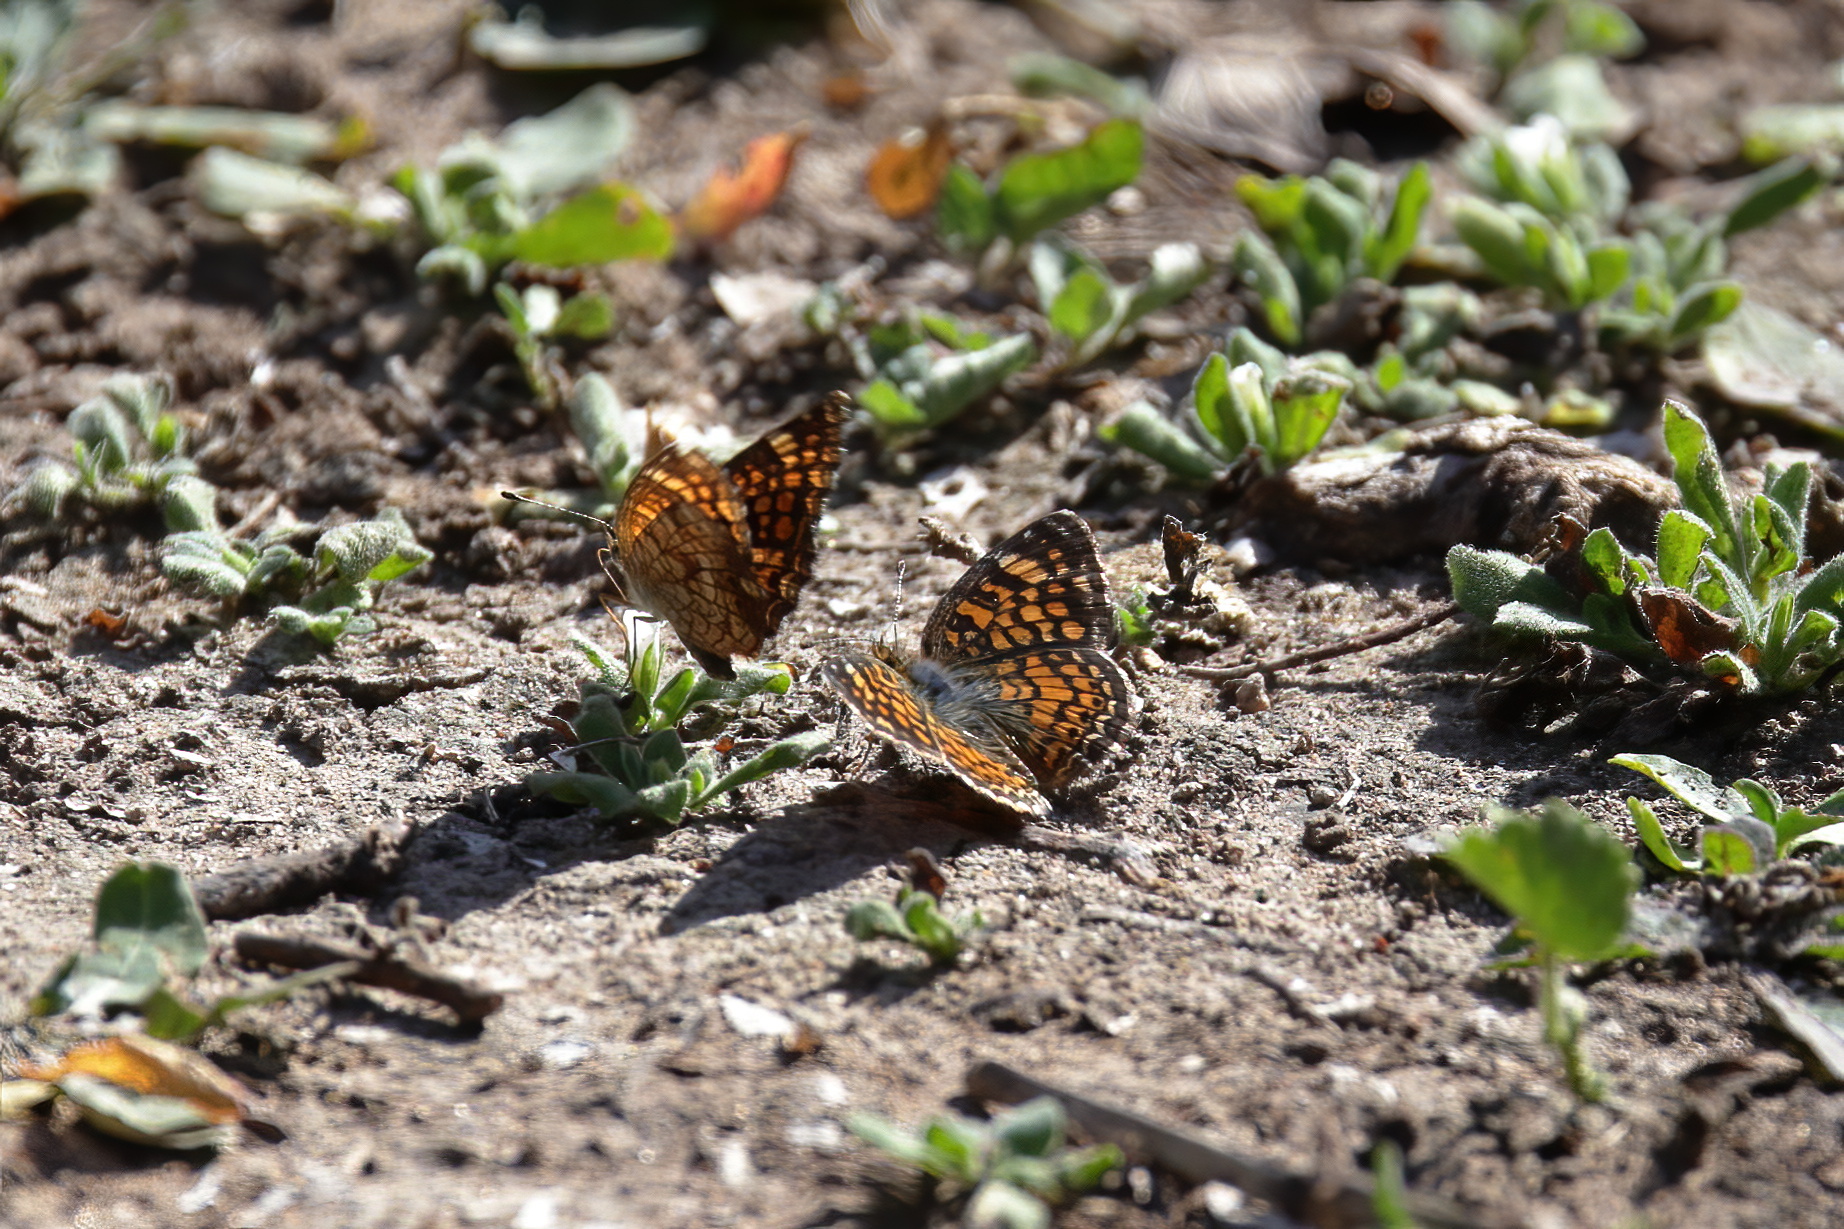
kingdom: Animalia
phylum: Arthropoda
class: Insecta
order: Lepidoptera
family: Nymphalidae
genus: Phyciodes
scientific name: Phyciodes vesta
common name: Vesta crescent
